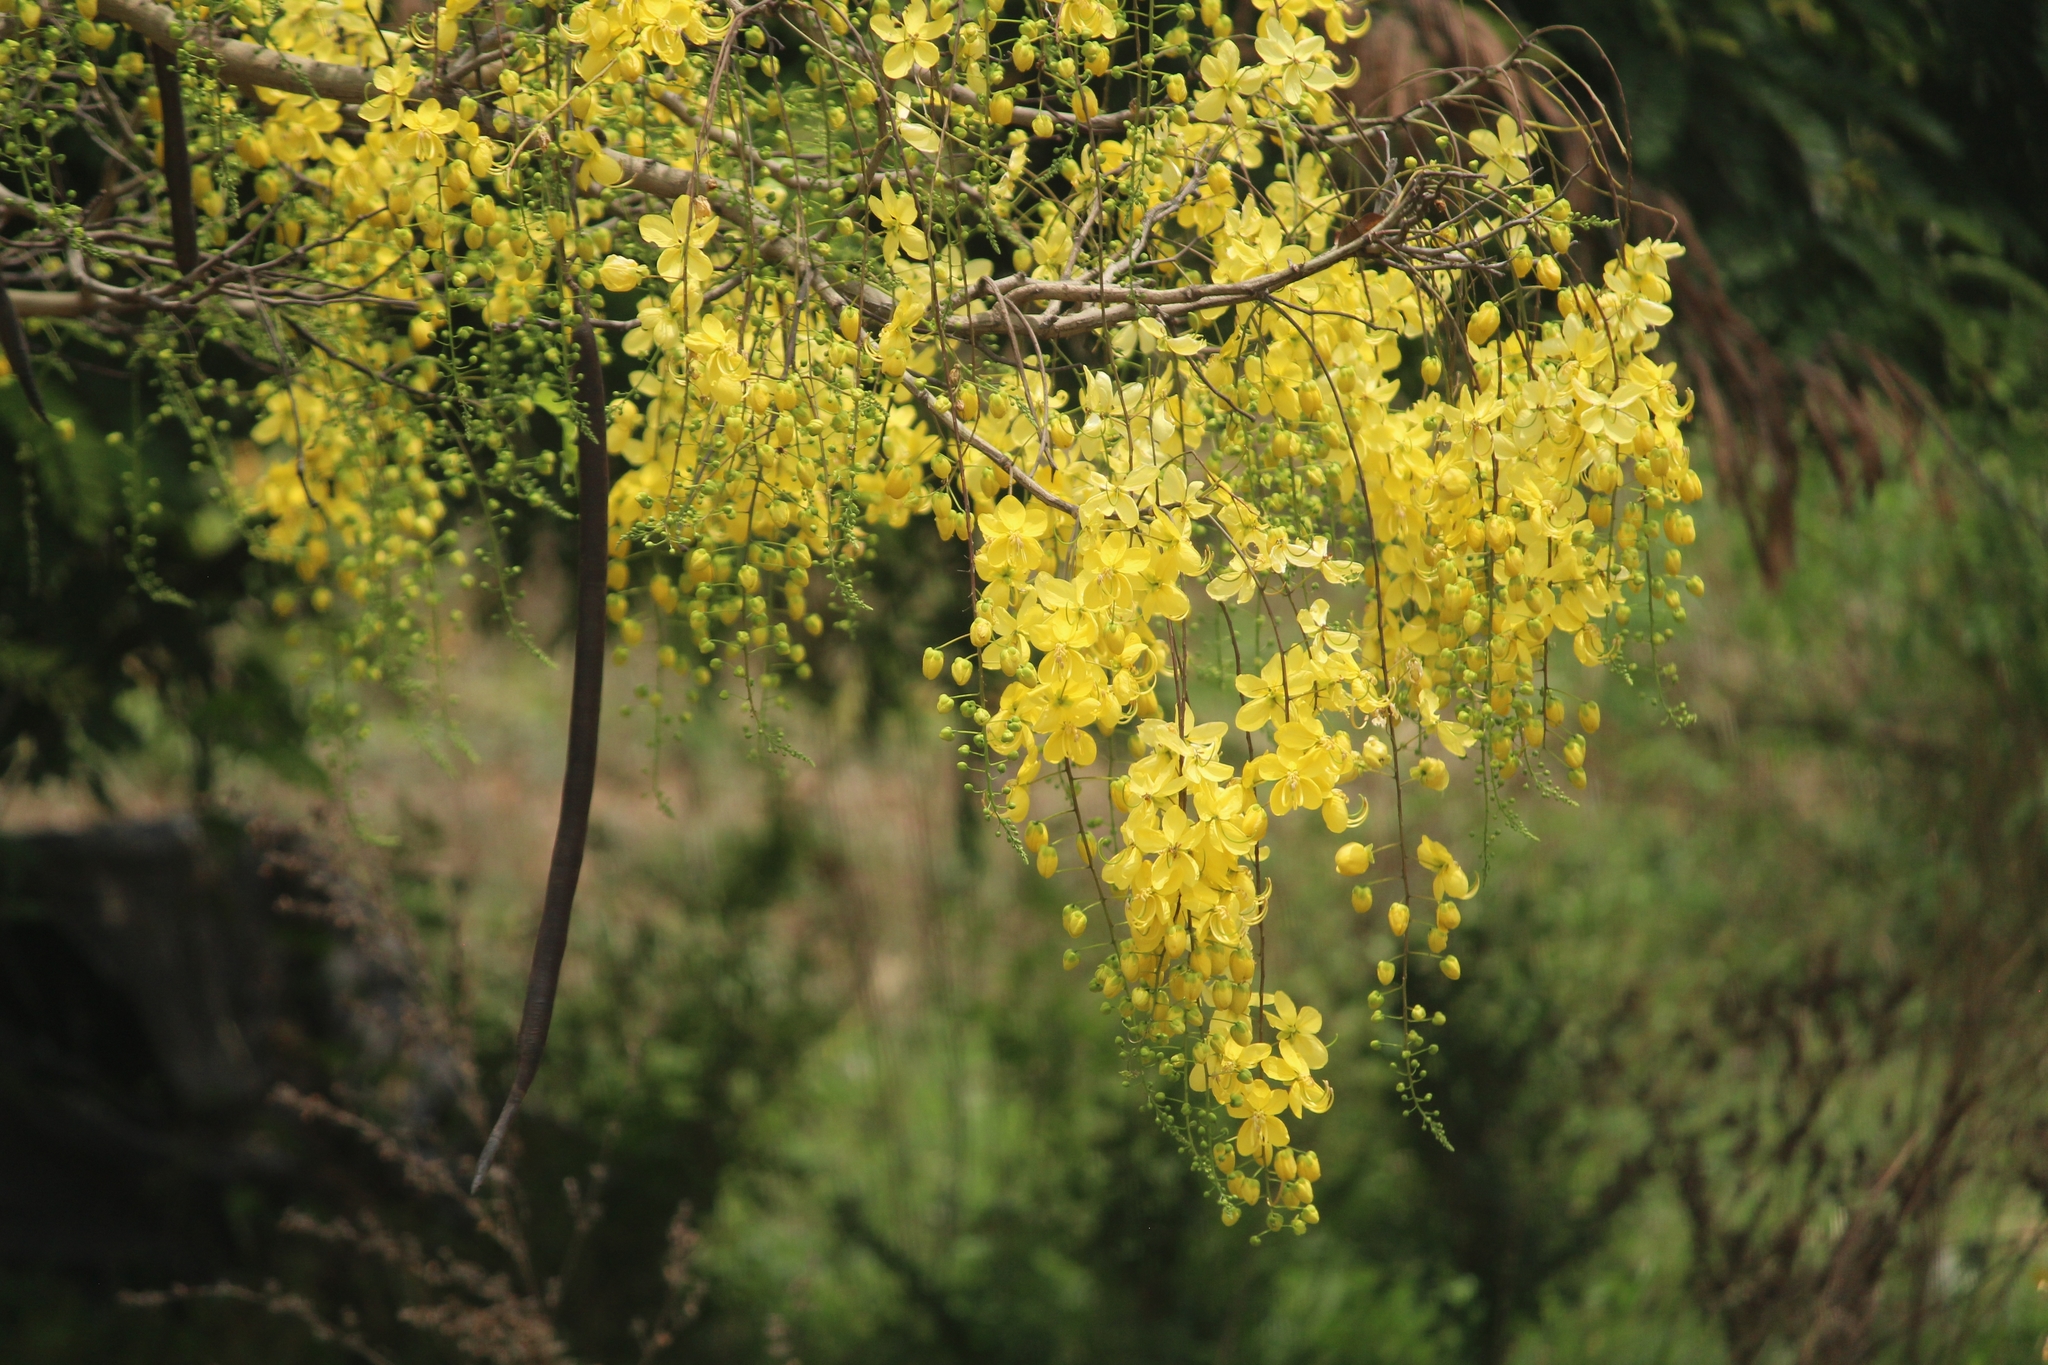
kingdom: Plantae
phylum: Tracheophyta
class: Magnoliopsida
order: Fabales
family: Fabaceae
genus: Cassia
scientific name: Cassia fistula
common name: Golden shower
